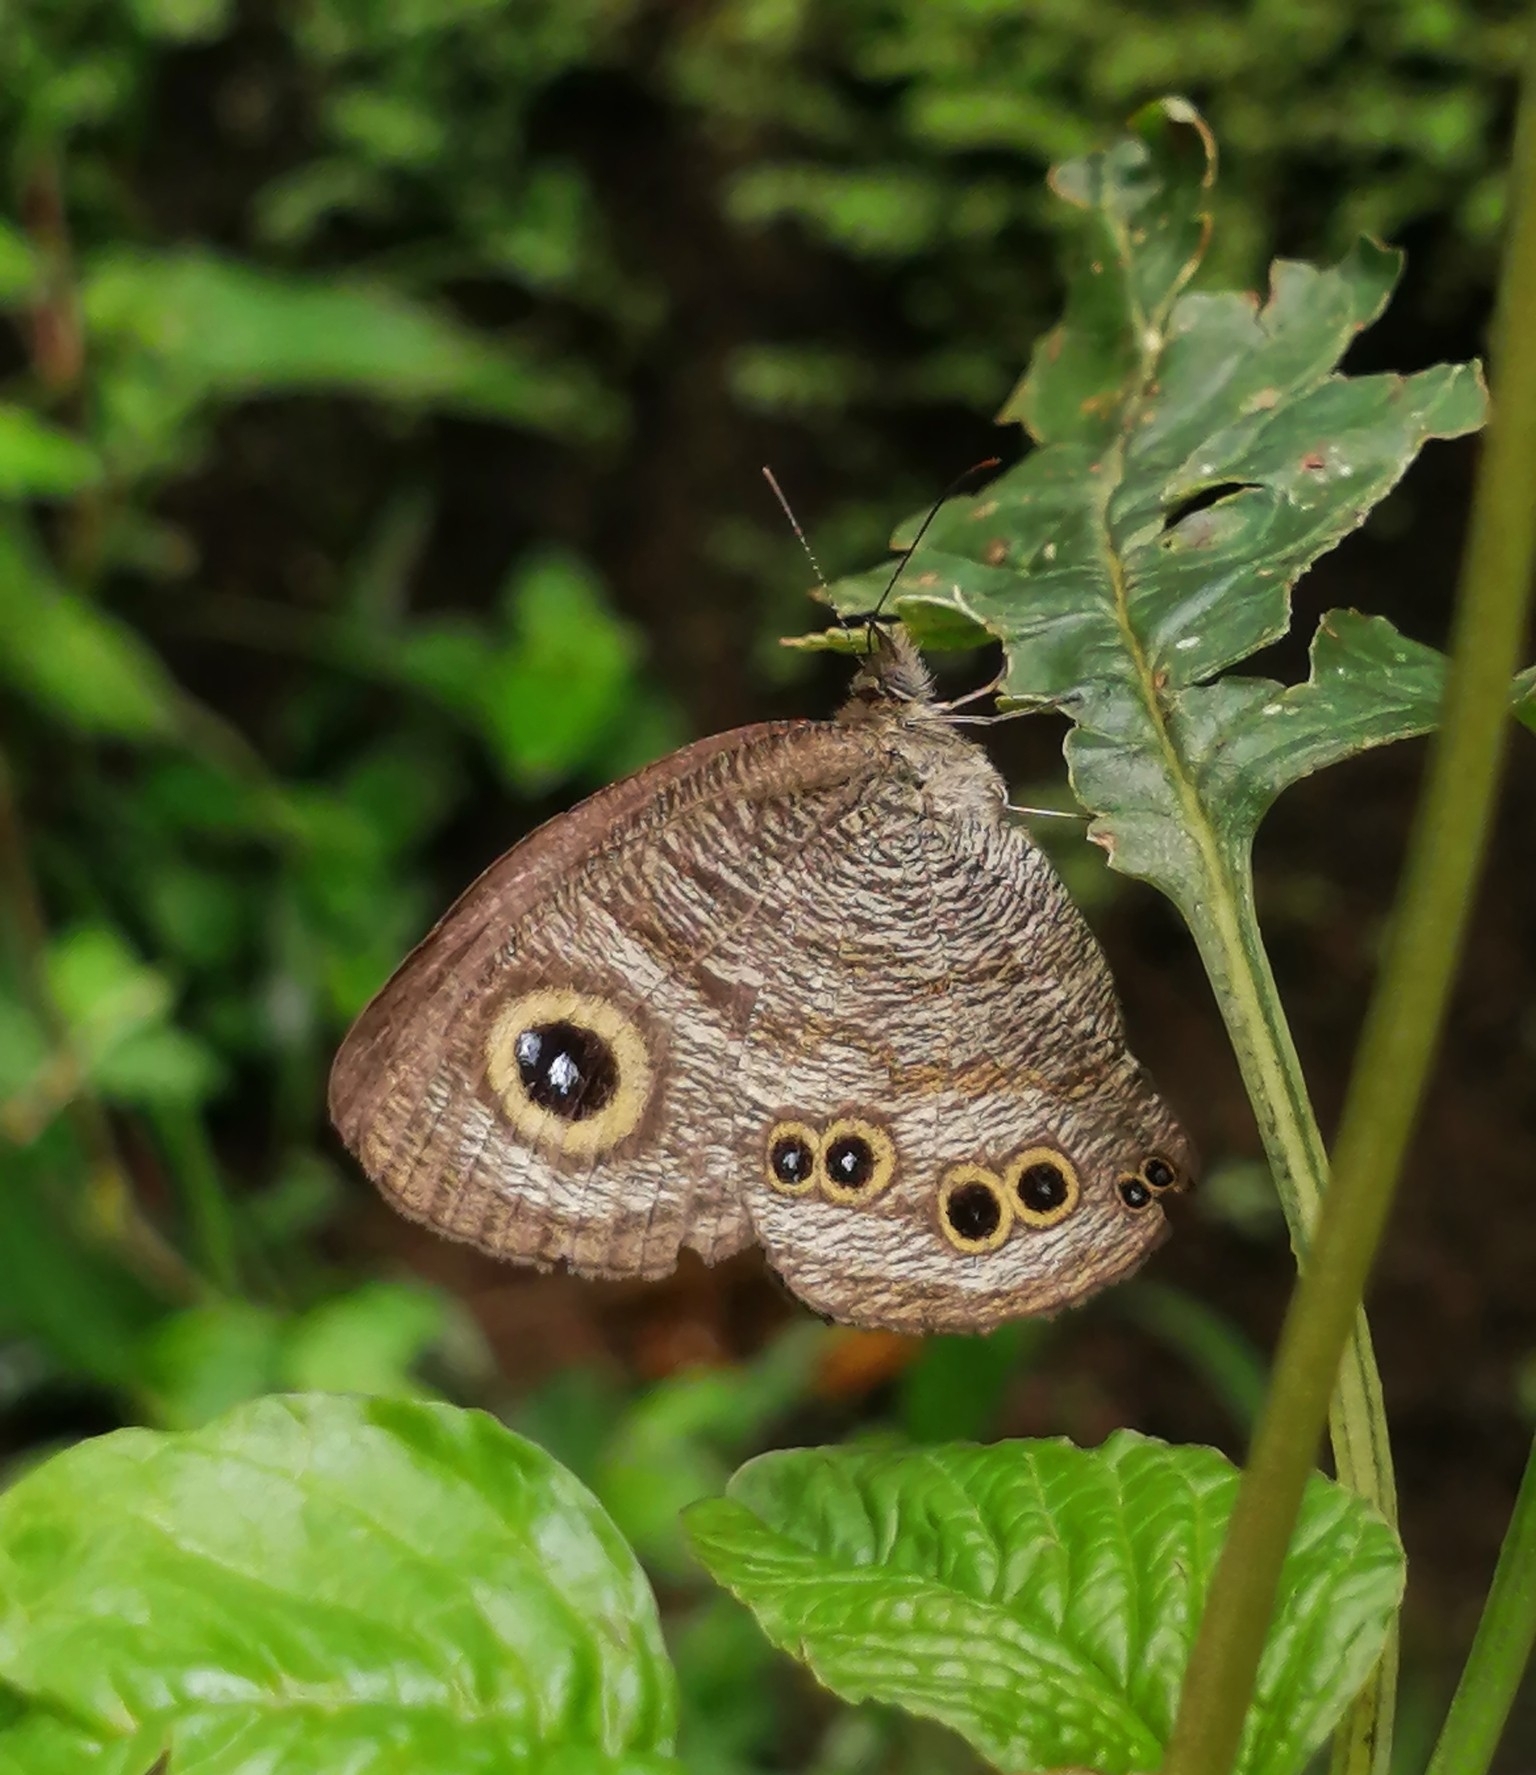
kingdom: Animalia
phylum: Arthropoda
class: Insecta
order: Lepidoptera
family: Nymphalidae
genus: Ypthima
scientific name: Ypthima baldus
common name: Common five-ring
